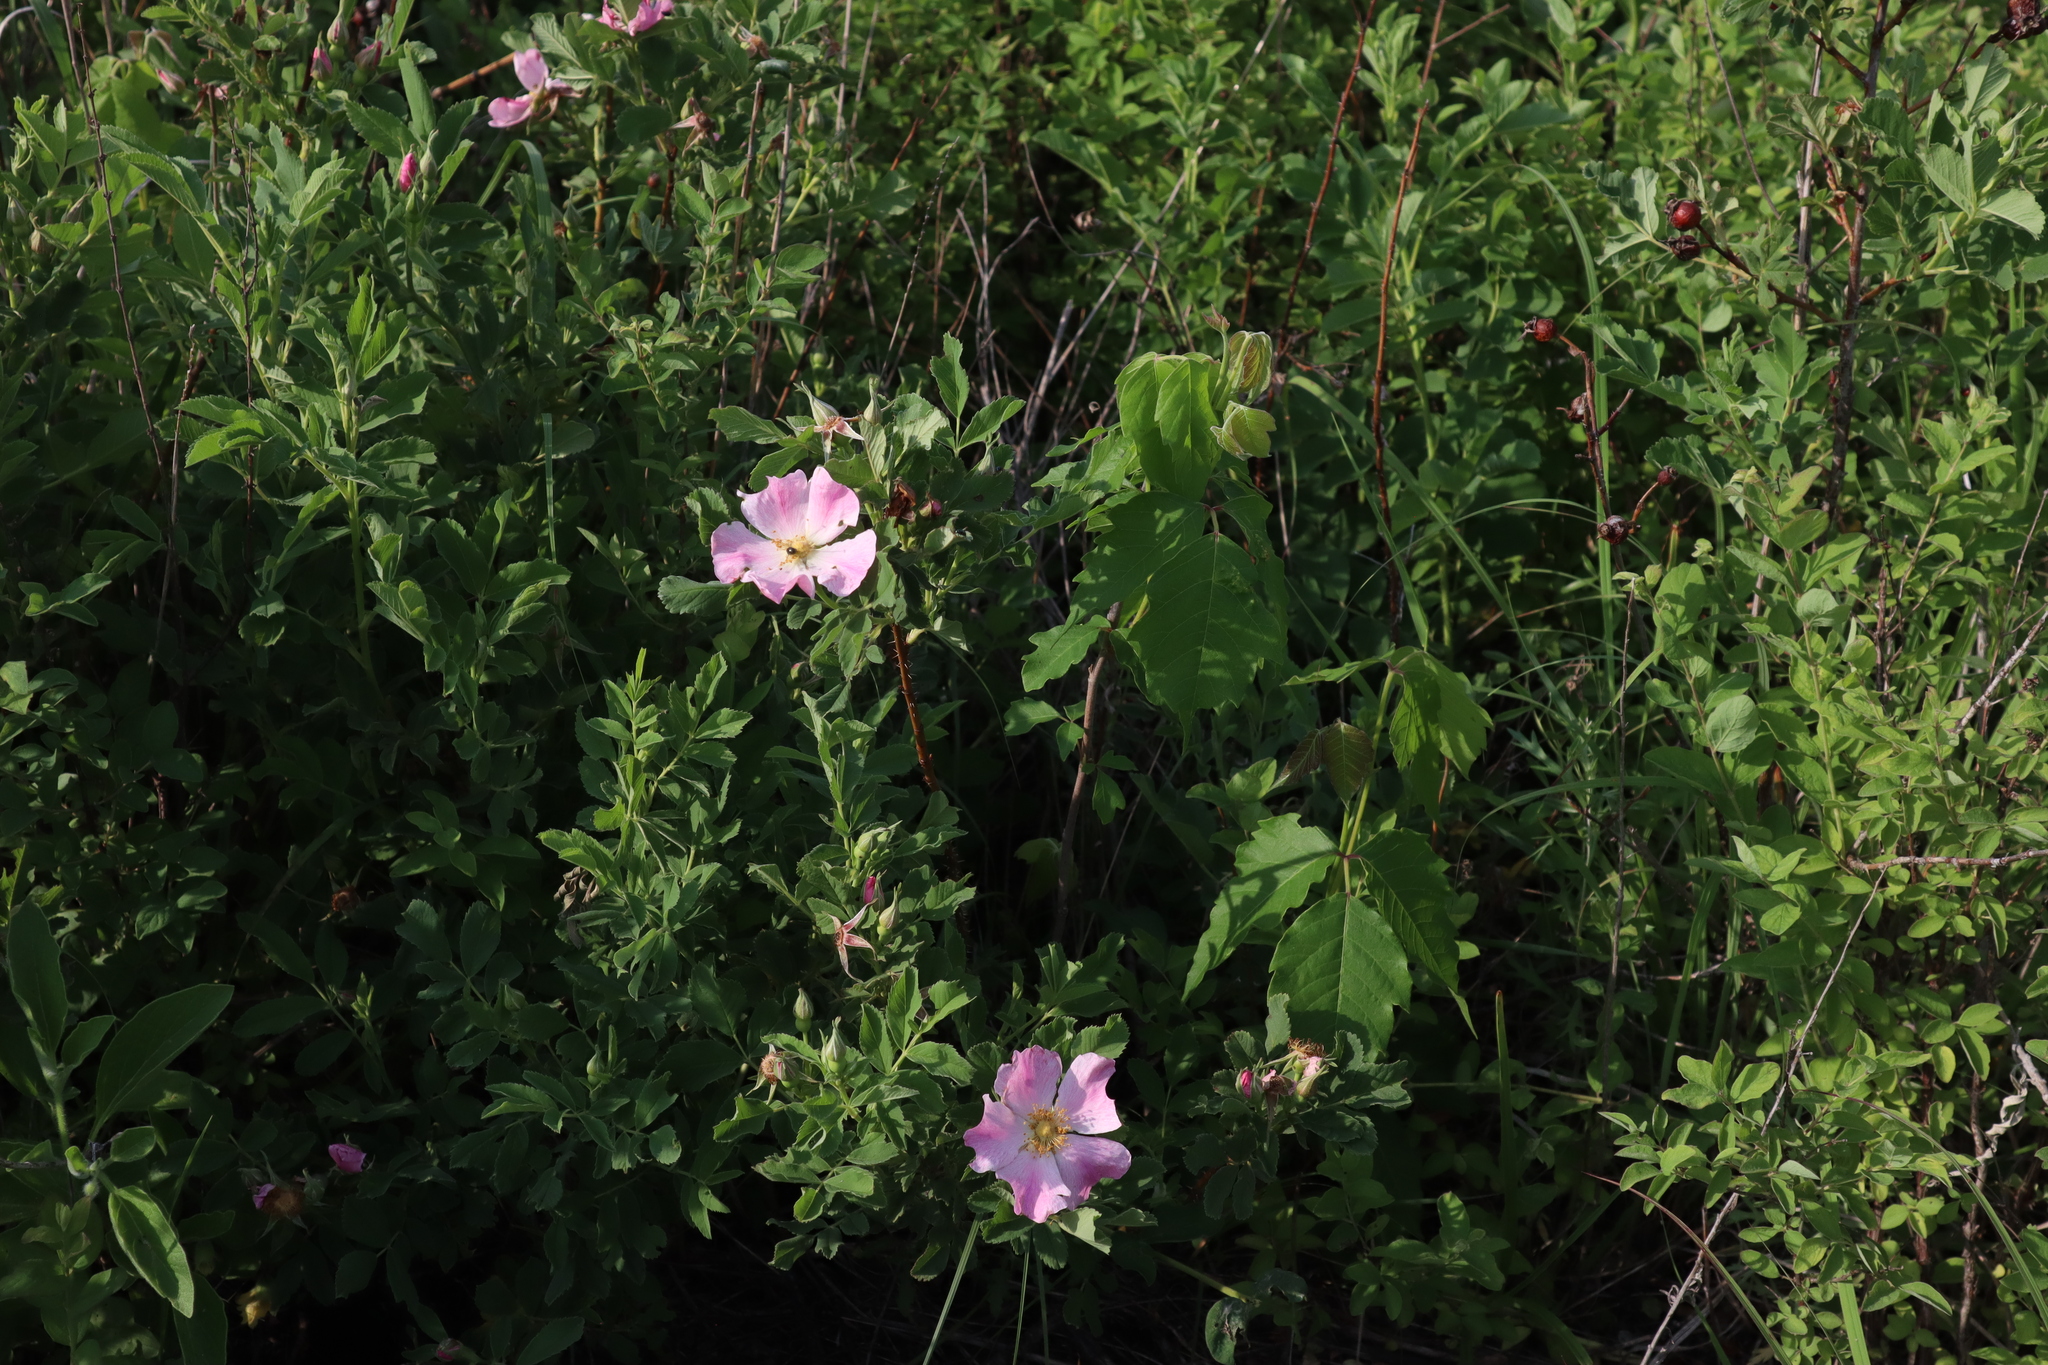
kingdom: Plantae
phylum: Tracheophyta
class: Magnoliopsida
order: Rosales
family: Rosaceae
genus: Rosa
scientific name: Rosa arkansana
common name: Prairie rose
